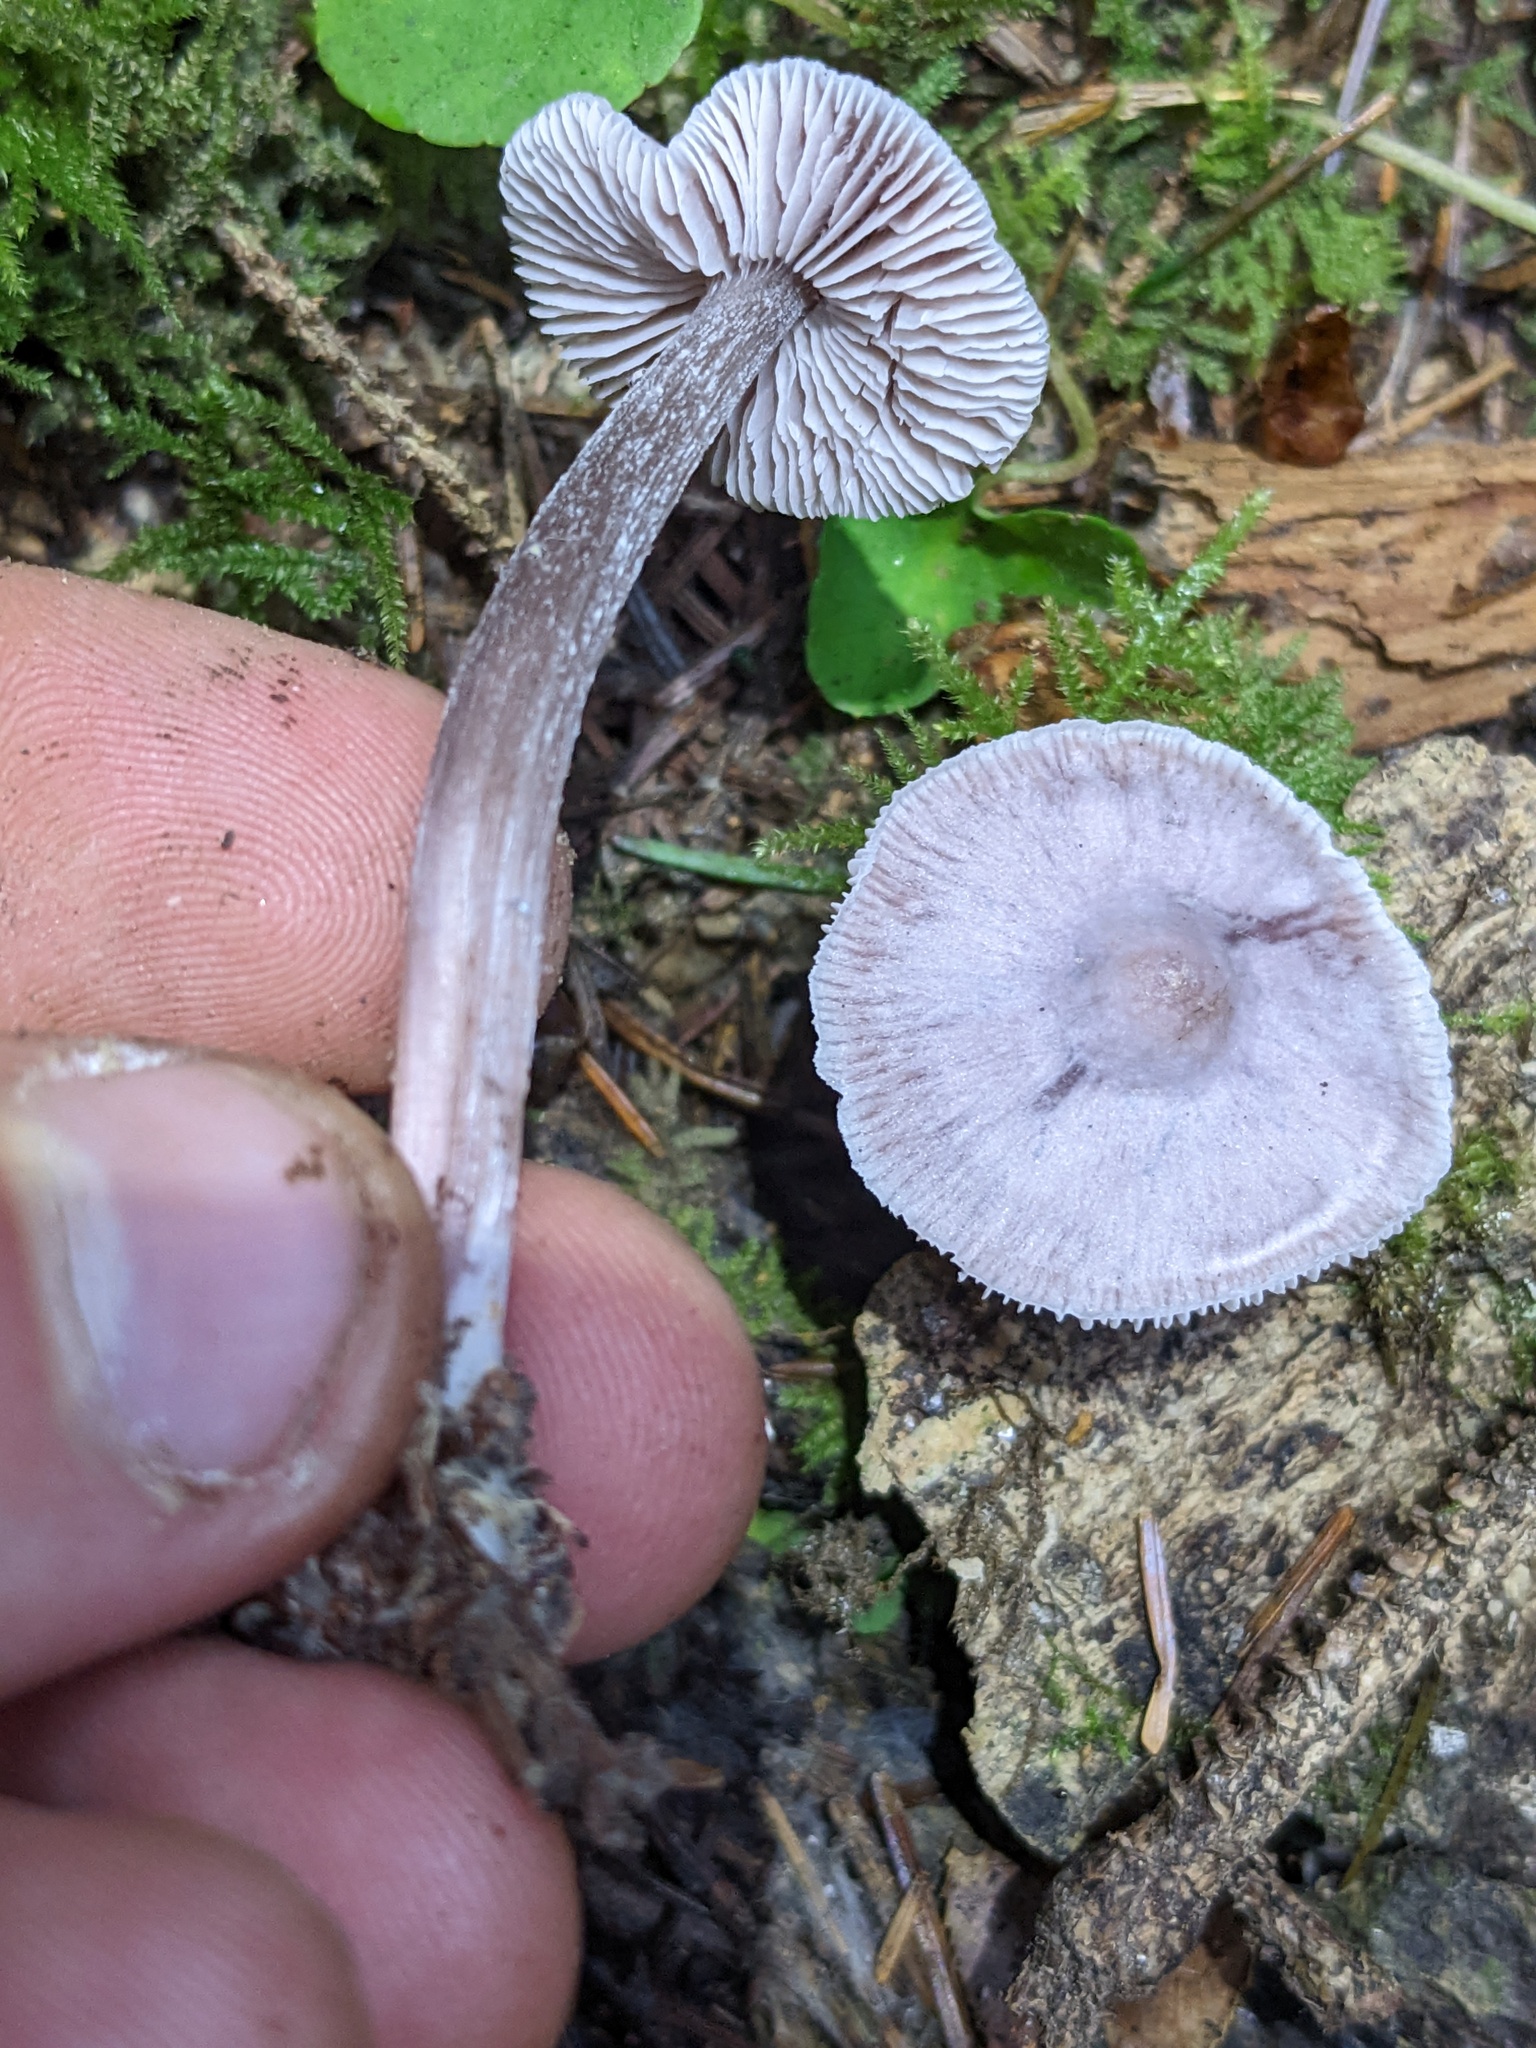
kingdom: Fungi
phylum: Basidiomycota
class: Agaricomycetes
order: Agaricales
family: Mycenaceae
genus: Mycena
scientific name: Mycena pura
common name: Lilac bonnet
